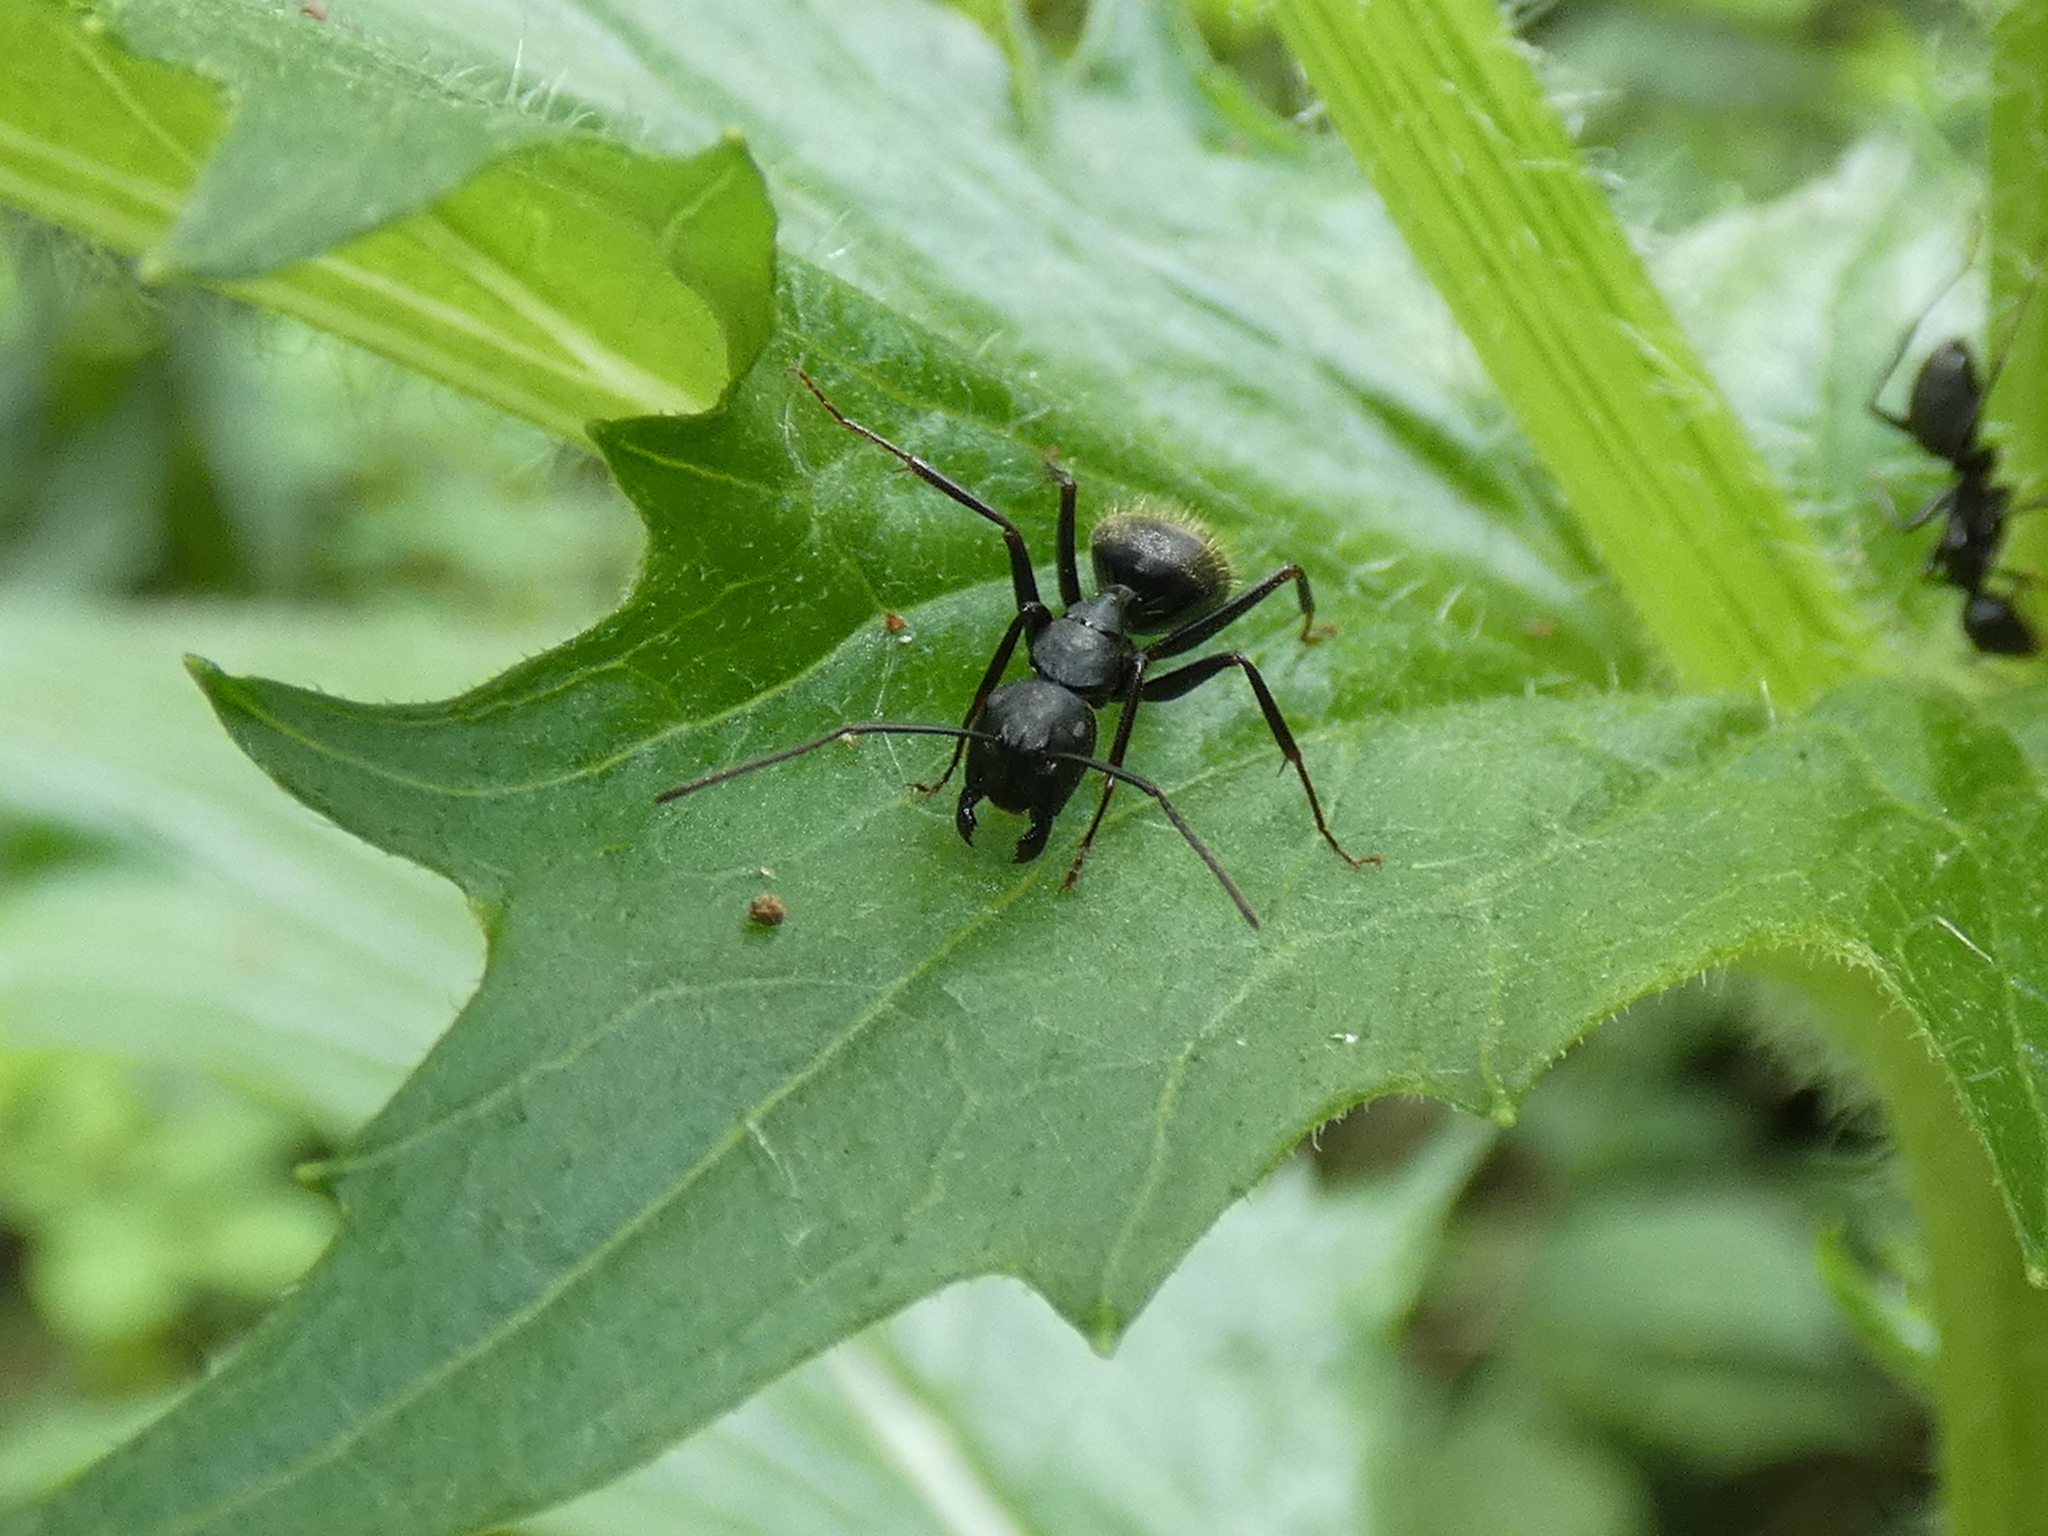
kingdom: Animalia
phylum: Arthropoda
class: Insecta
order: Hymenoptera
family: Formicidae
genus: Camponotus
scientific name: Camponotus pennsylvanicus
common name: Black carpenter ant
